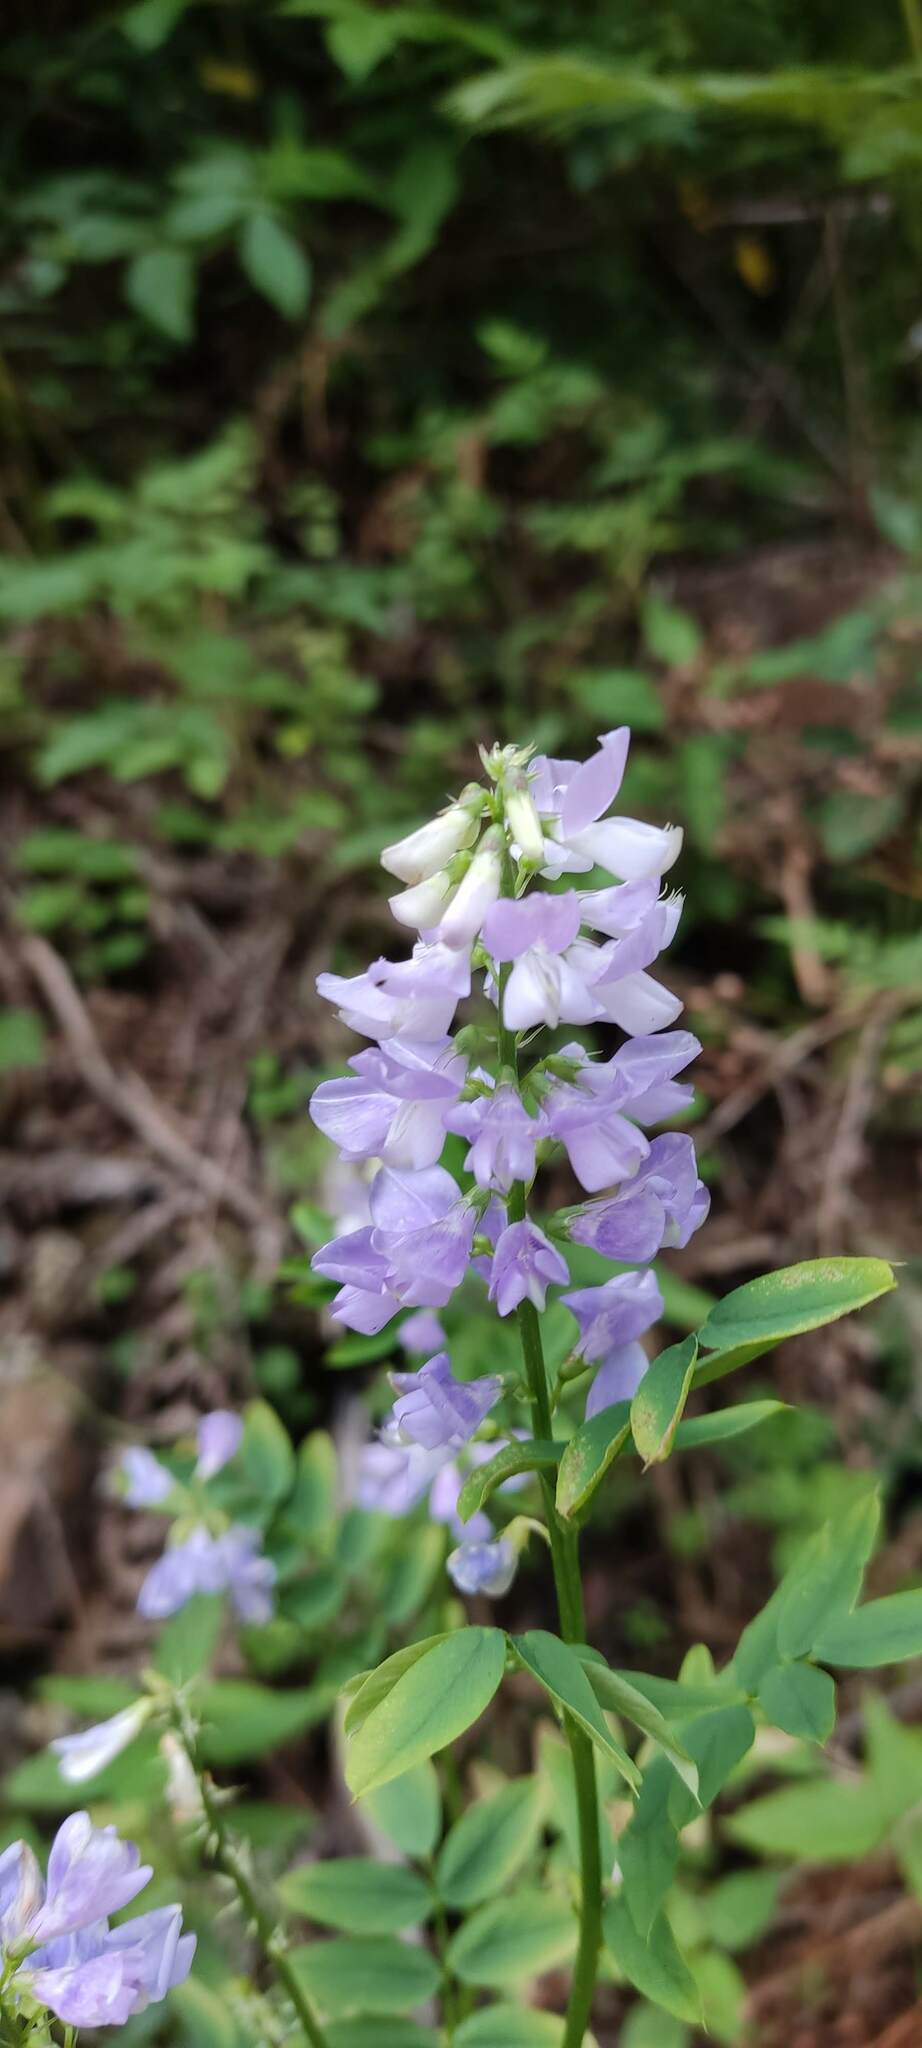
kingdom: Plantae
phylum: Tracheophyta
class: Magnoliopsida
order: Fabales
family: Fabaceae
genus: Galega
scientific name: Galega officinalis
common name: Goat's-rue
